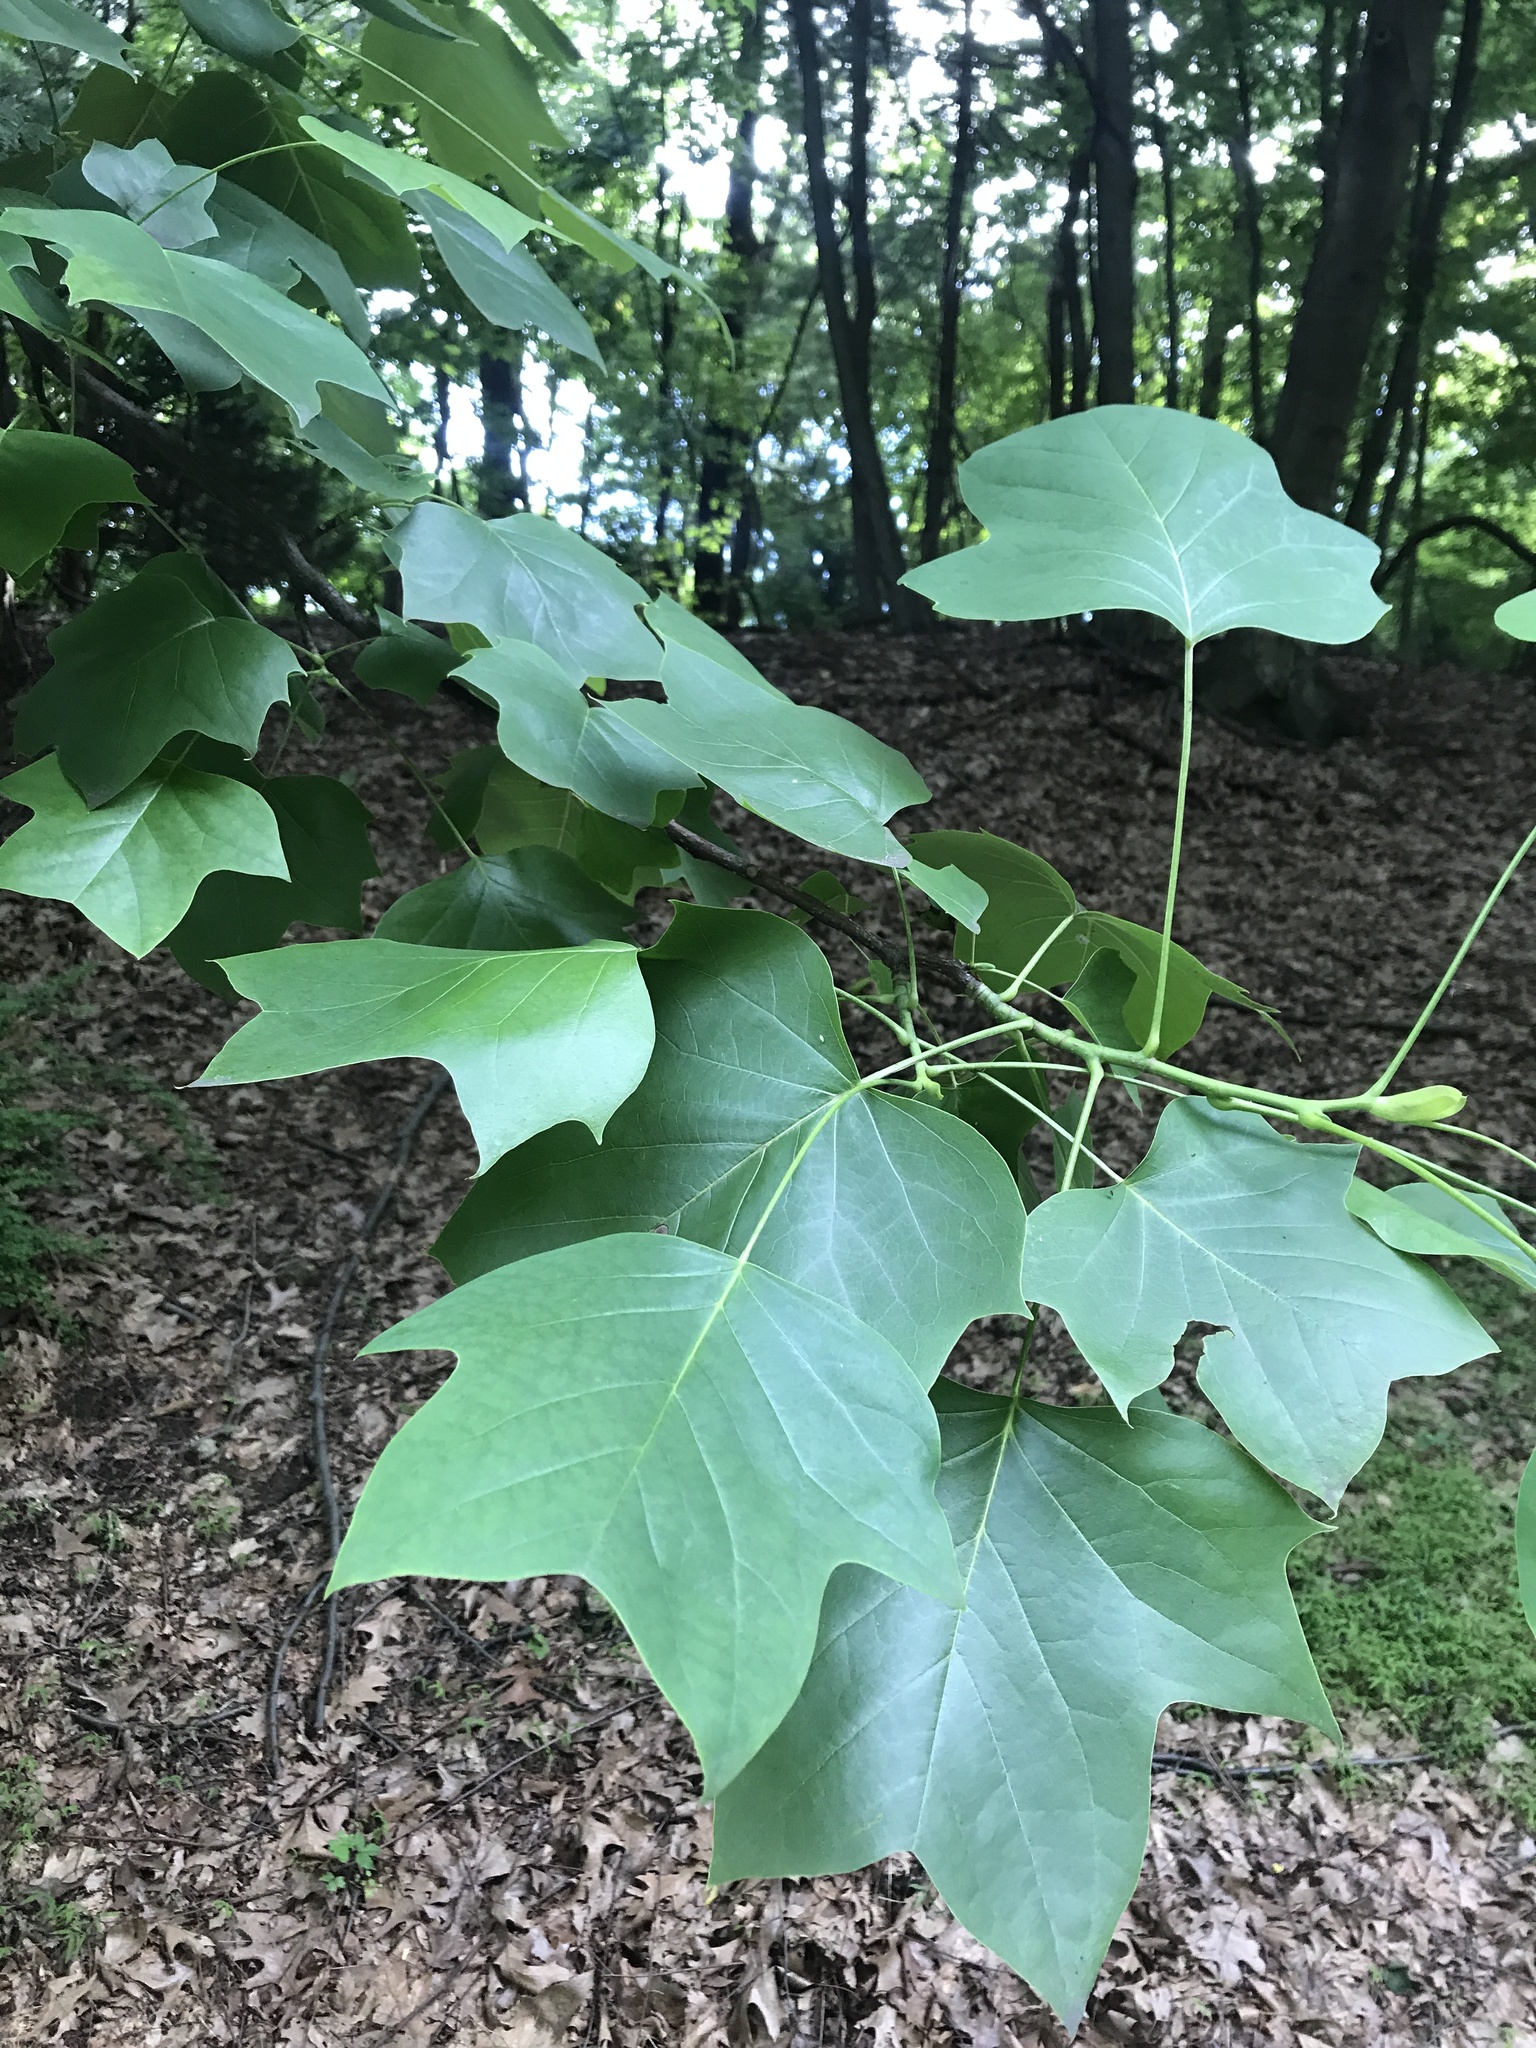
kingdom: Plantae
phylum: Tracheophyta
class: Magnoliopsida
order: Magnoliales
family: Magnoliaceae
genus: Liriodendron
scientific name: Liriodendron tulipifera
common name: Tulip tree
